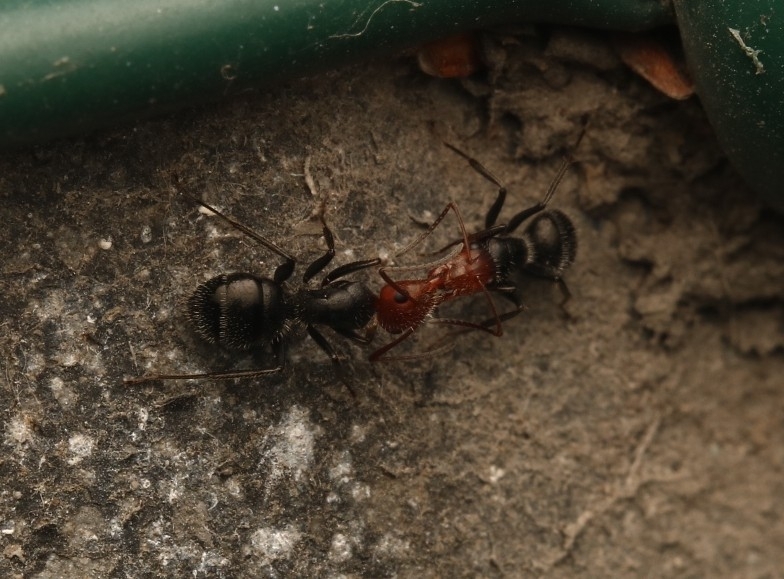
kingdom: Animalia
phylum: Arthropoda
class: Insecta
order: Hymenoptera
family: Formicidae
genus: Camponotus
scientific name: Camponotus lindigi
